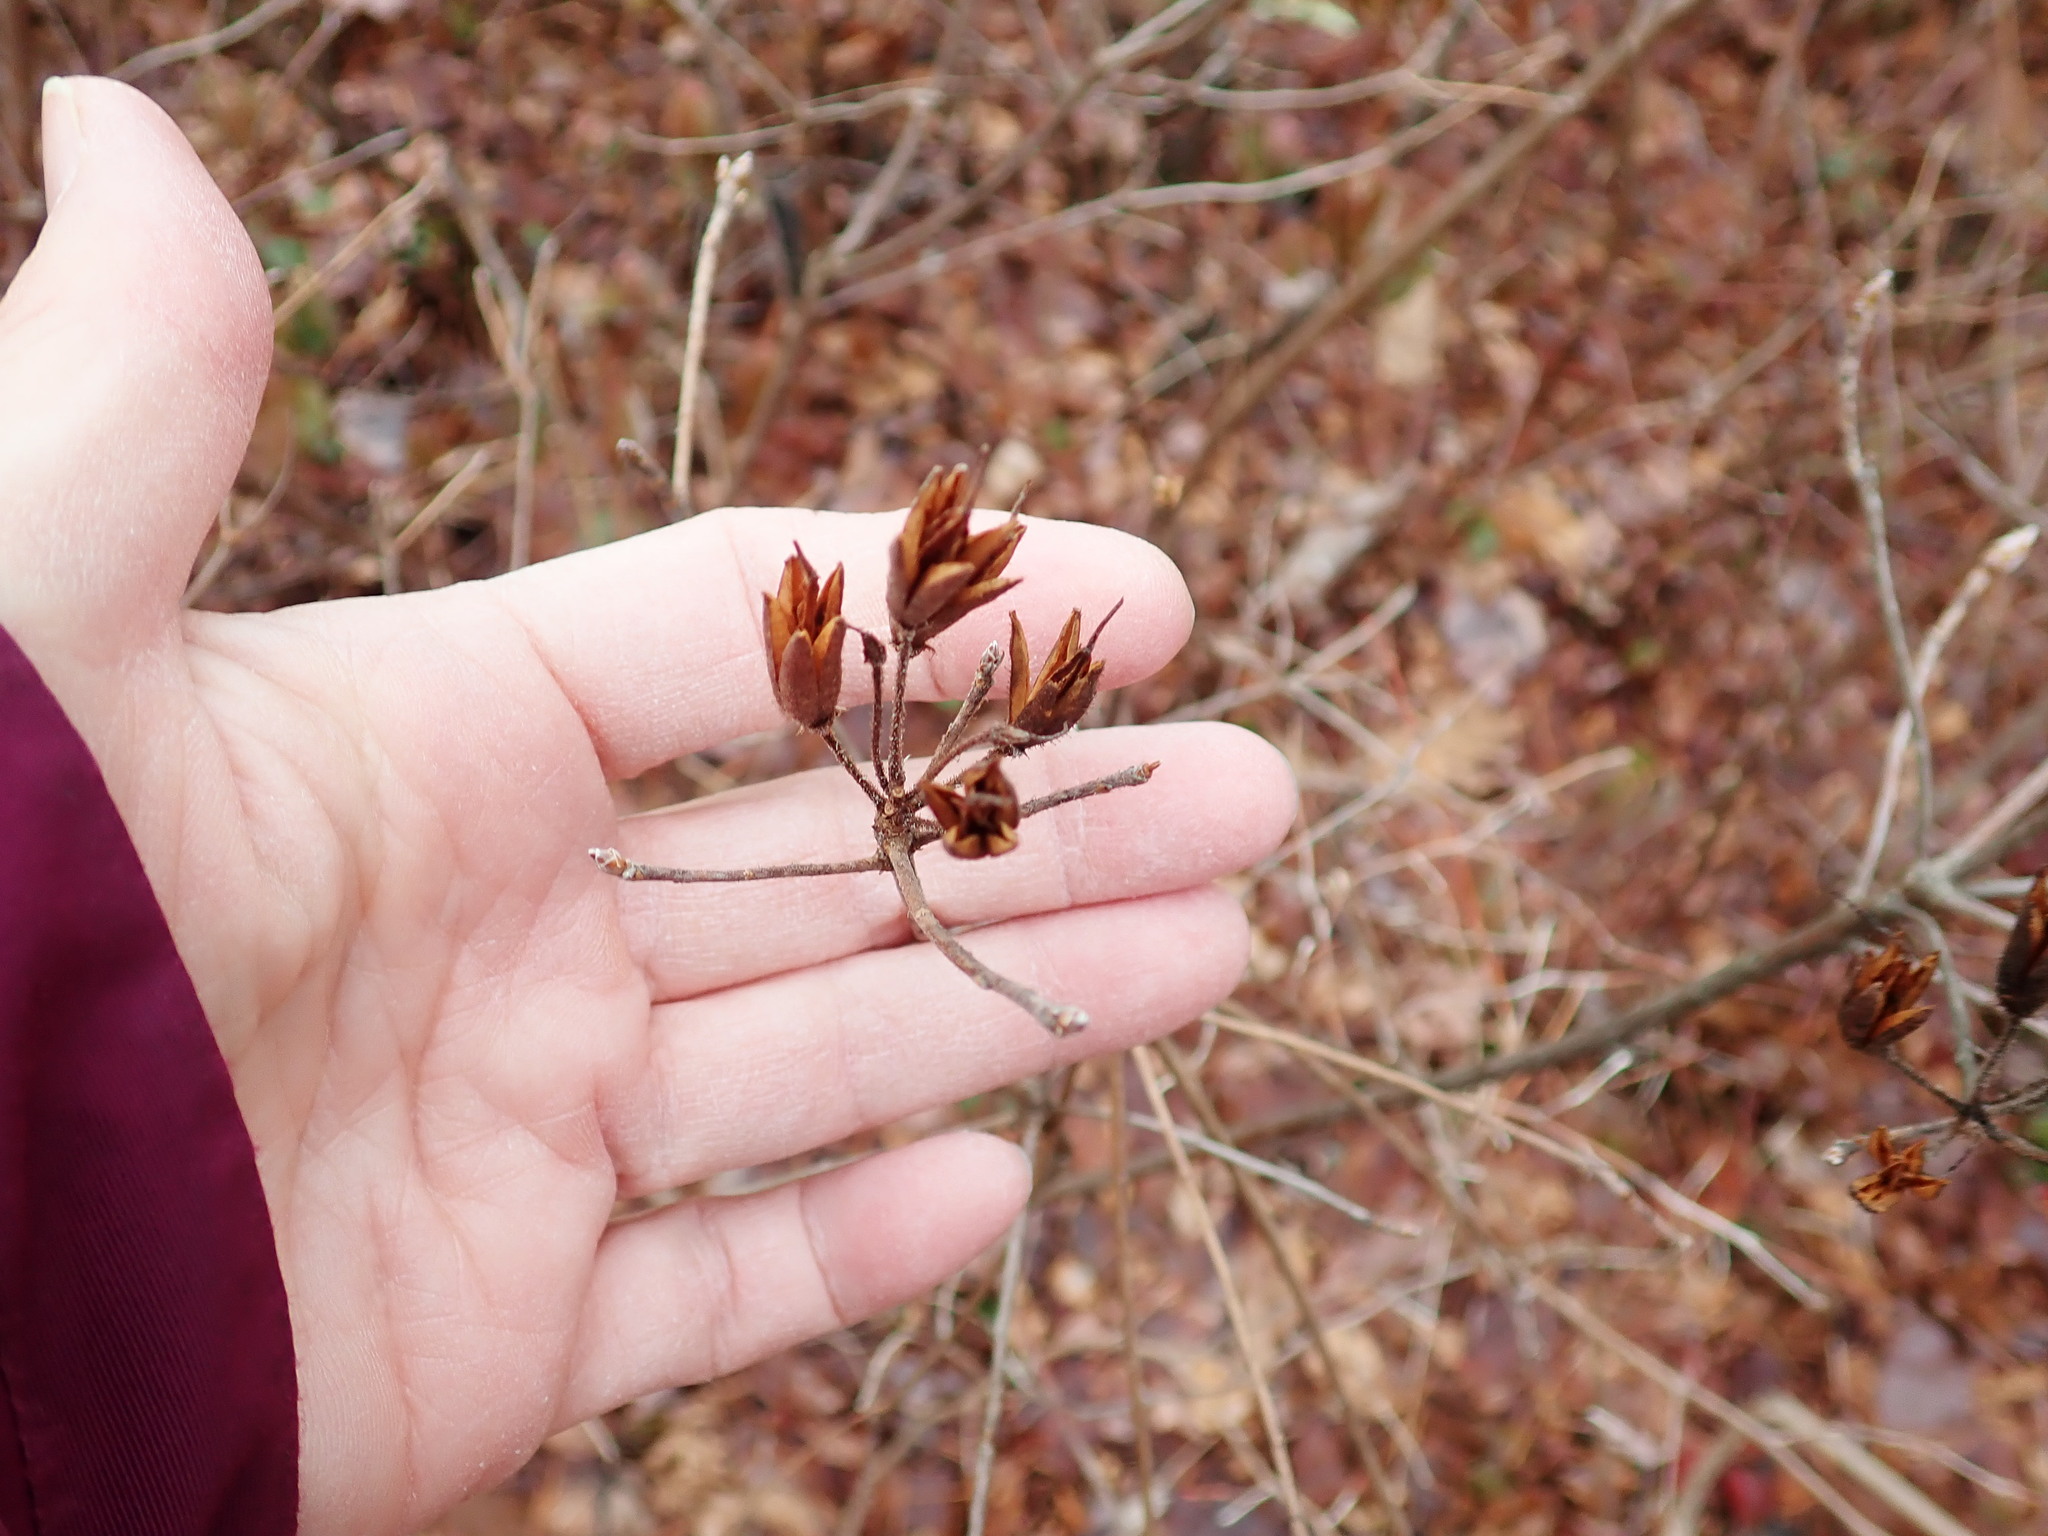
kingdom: Plantae
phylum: Tracheophyta
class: Magnoliopsida
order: Ericales
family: Ericaceae
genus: Rhododendron
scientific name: Rhododendron
